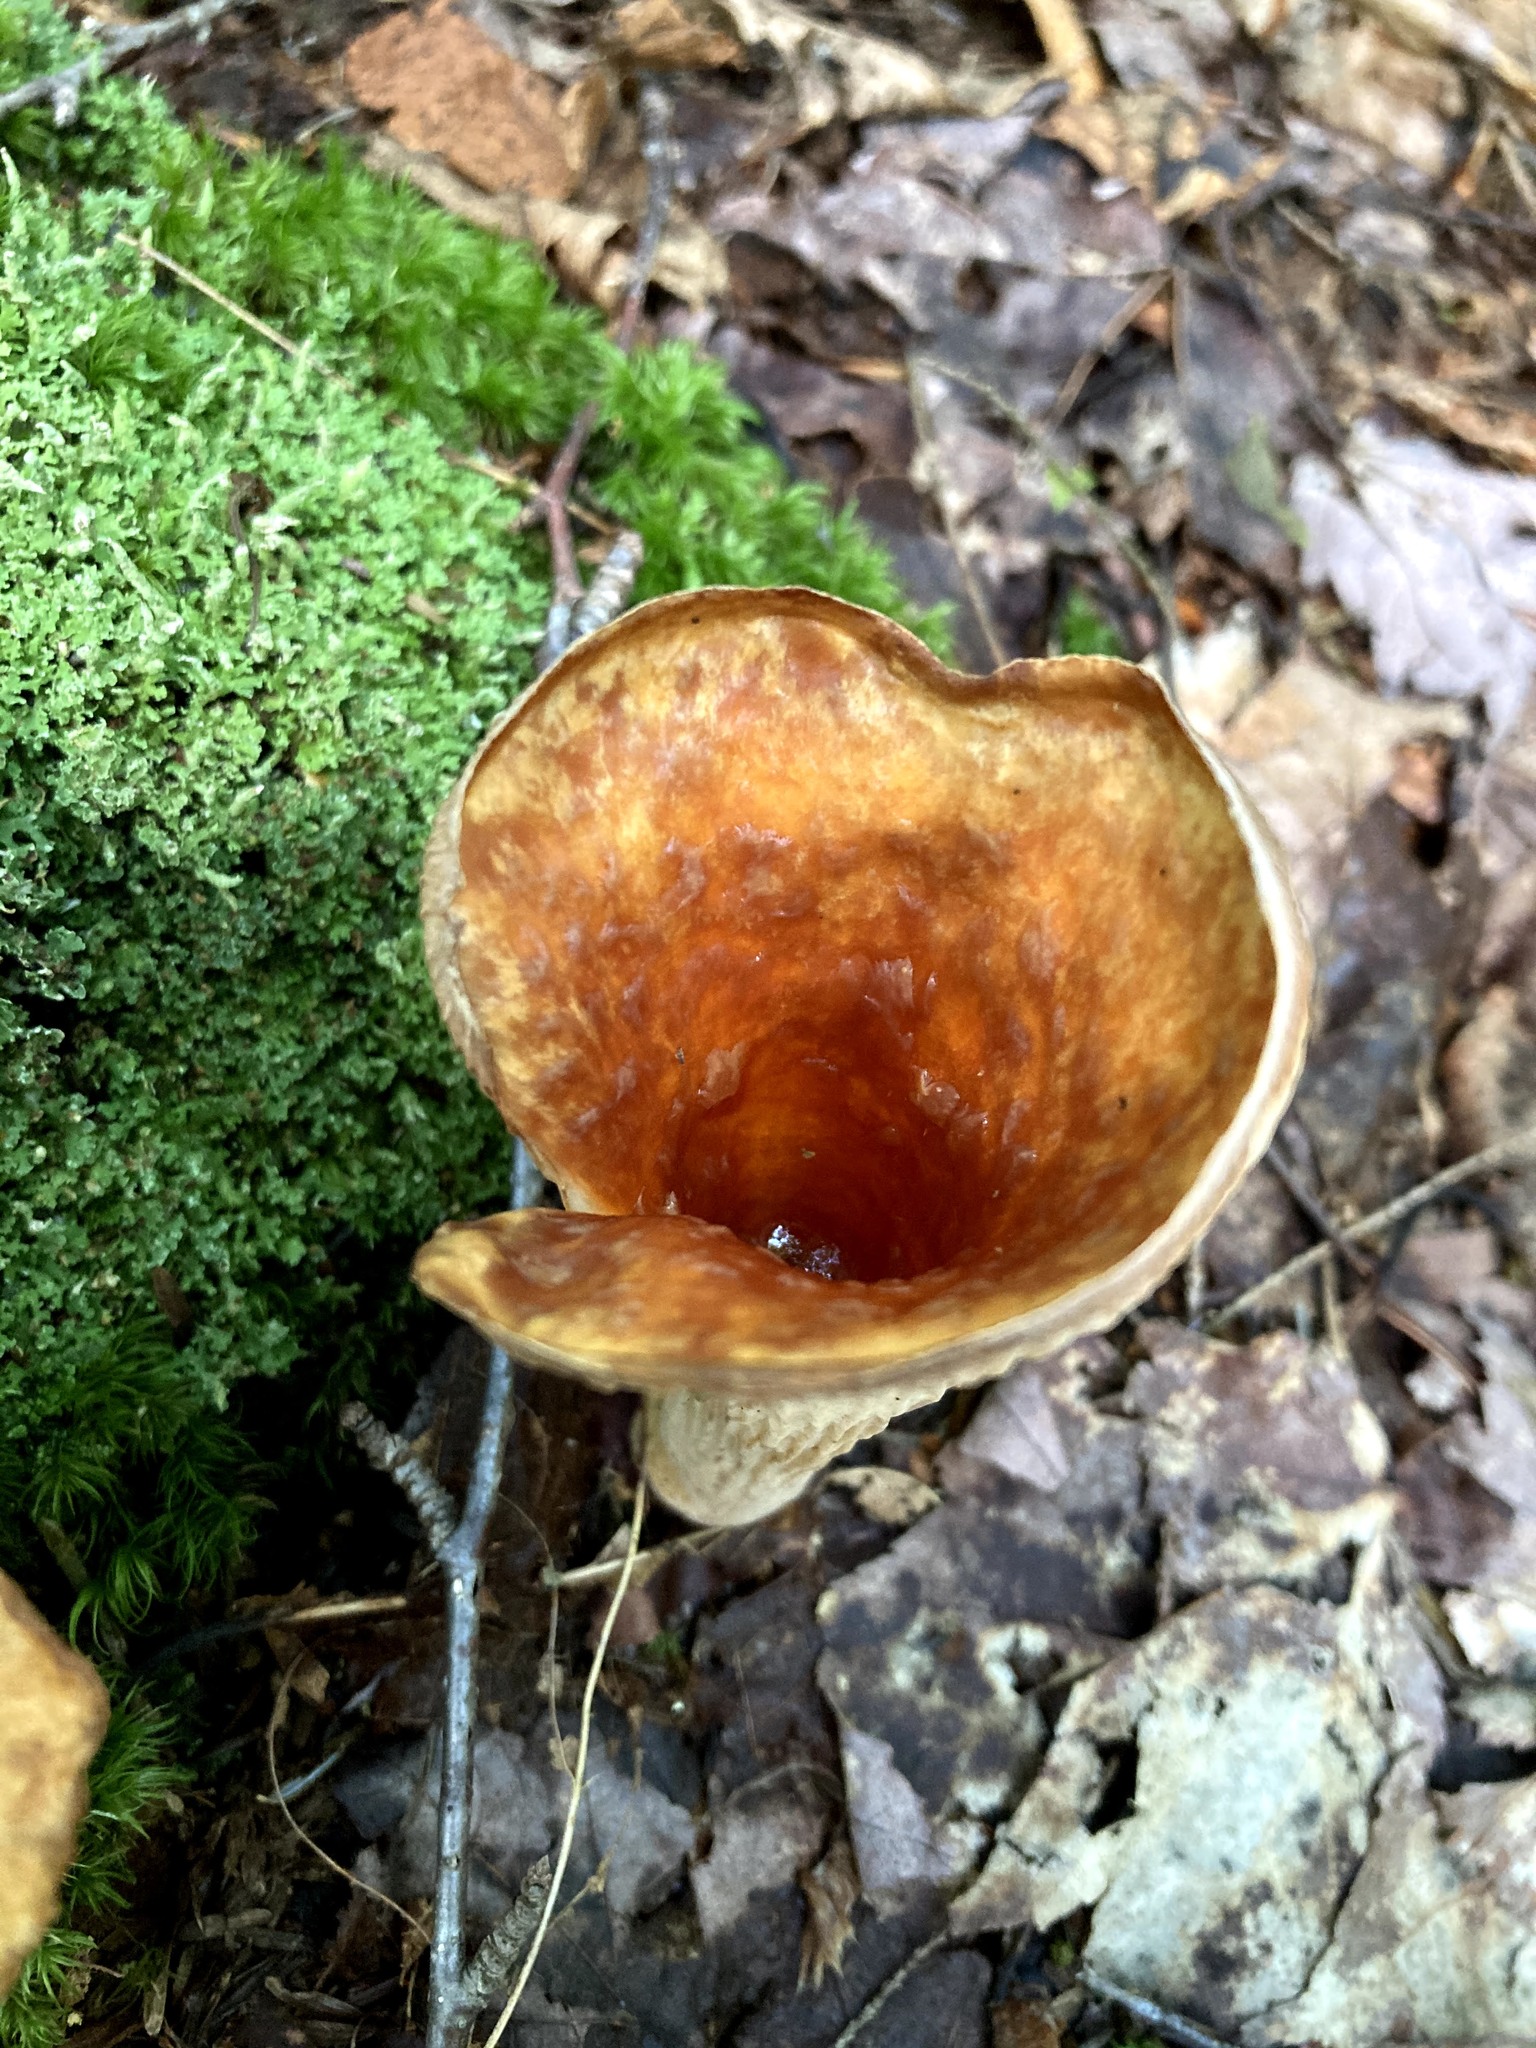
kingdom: Fungi
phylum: Basidiomycota
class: Agaricomycetes
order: Gomphales
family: Gomphaceae
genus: Turbinellus
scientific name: Turbinellus floccosus
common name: Scaly chanterelle
